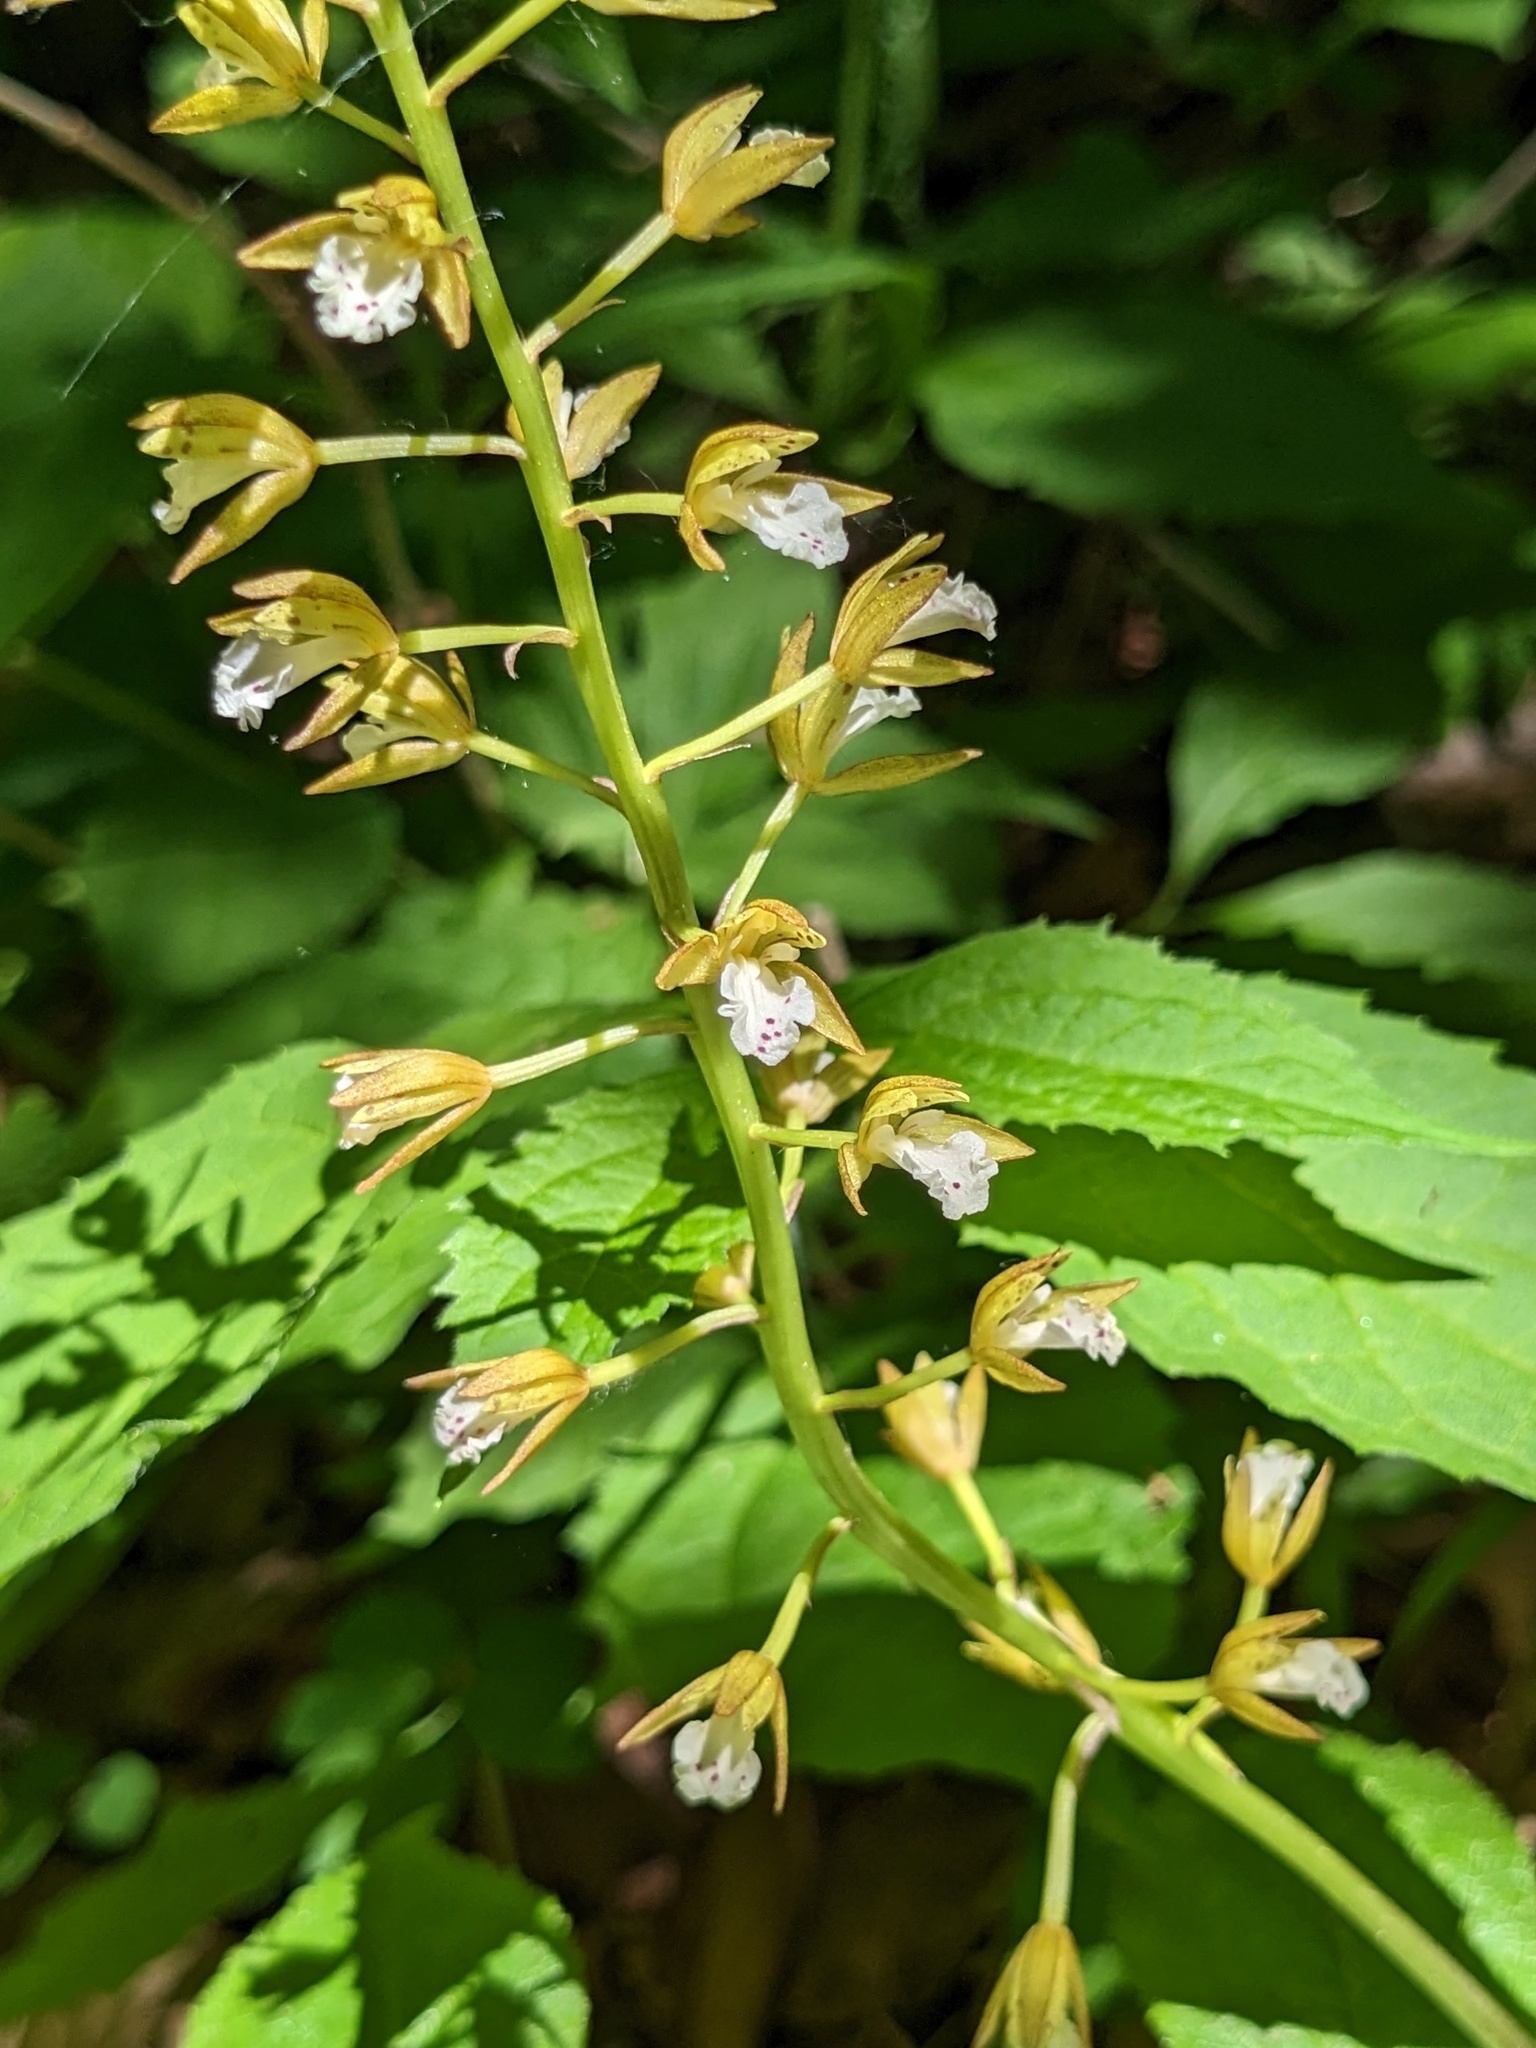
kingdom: Plantae
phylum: Tracheophyta
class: Liliopsida
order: Asparagales
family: Orchidaceae
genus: Oreorchis
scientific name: Oreorchis patens
